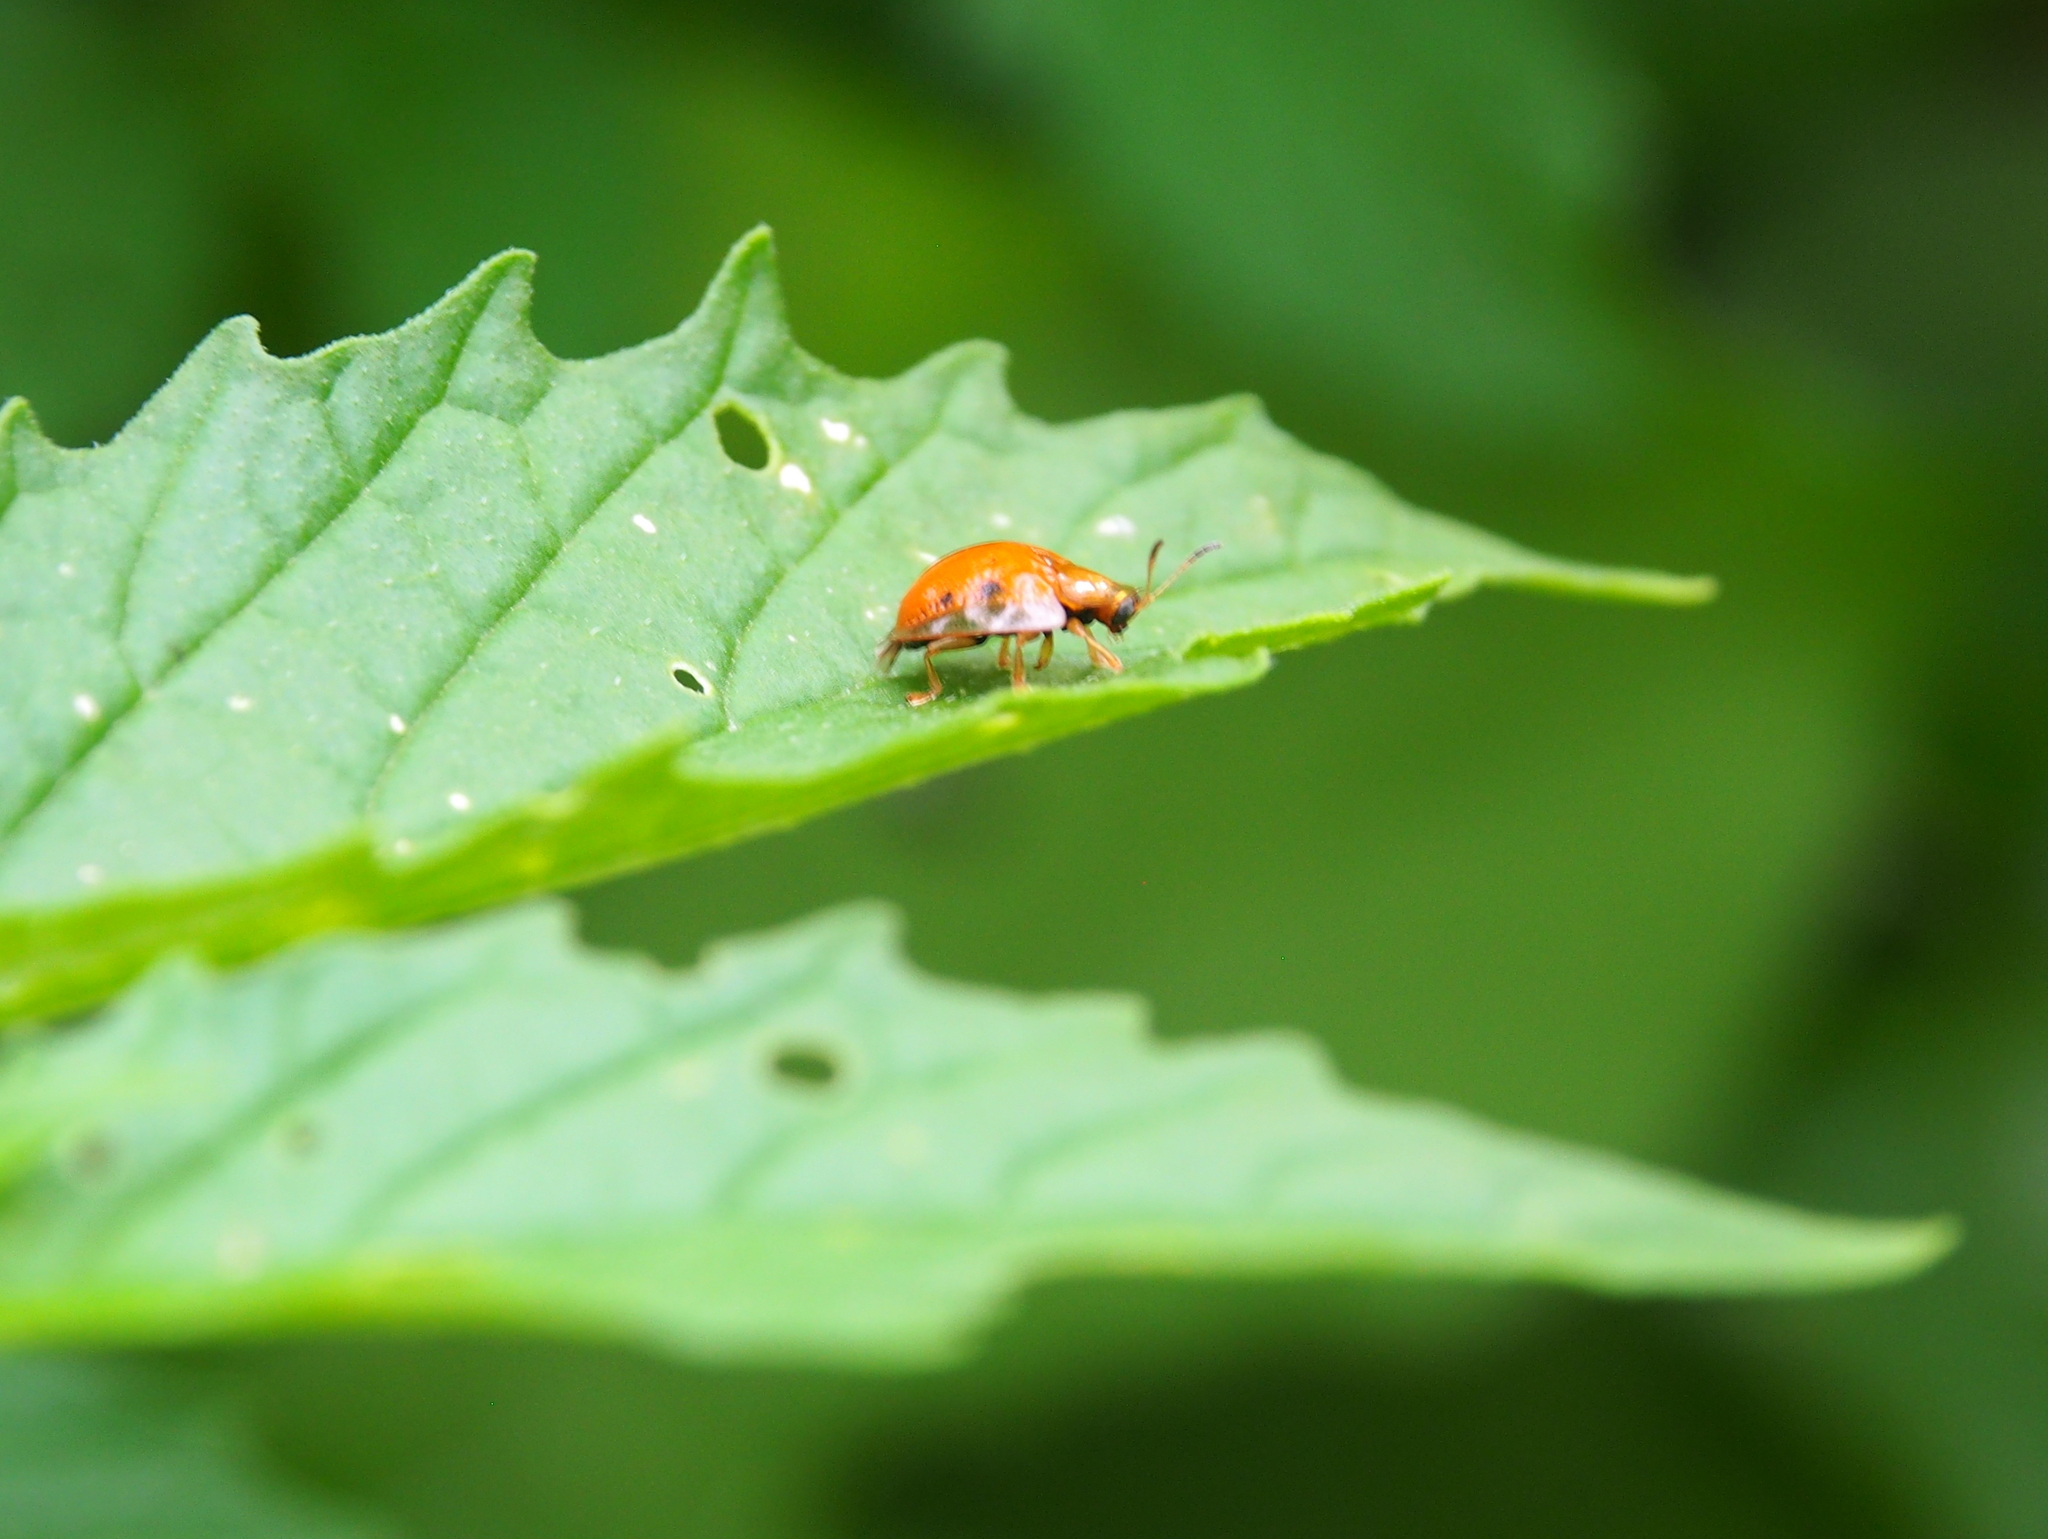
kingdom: Animalia
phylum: Arthropoda
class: Insecta
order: Coleoptera
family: Chrysomelidae
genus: Charidotella
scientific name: Charidotella sexpunctata
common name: Golden tortoise beetle
